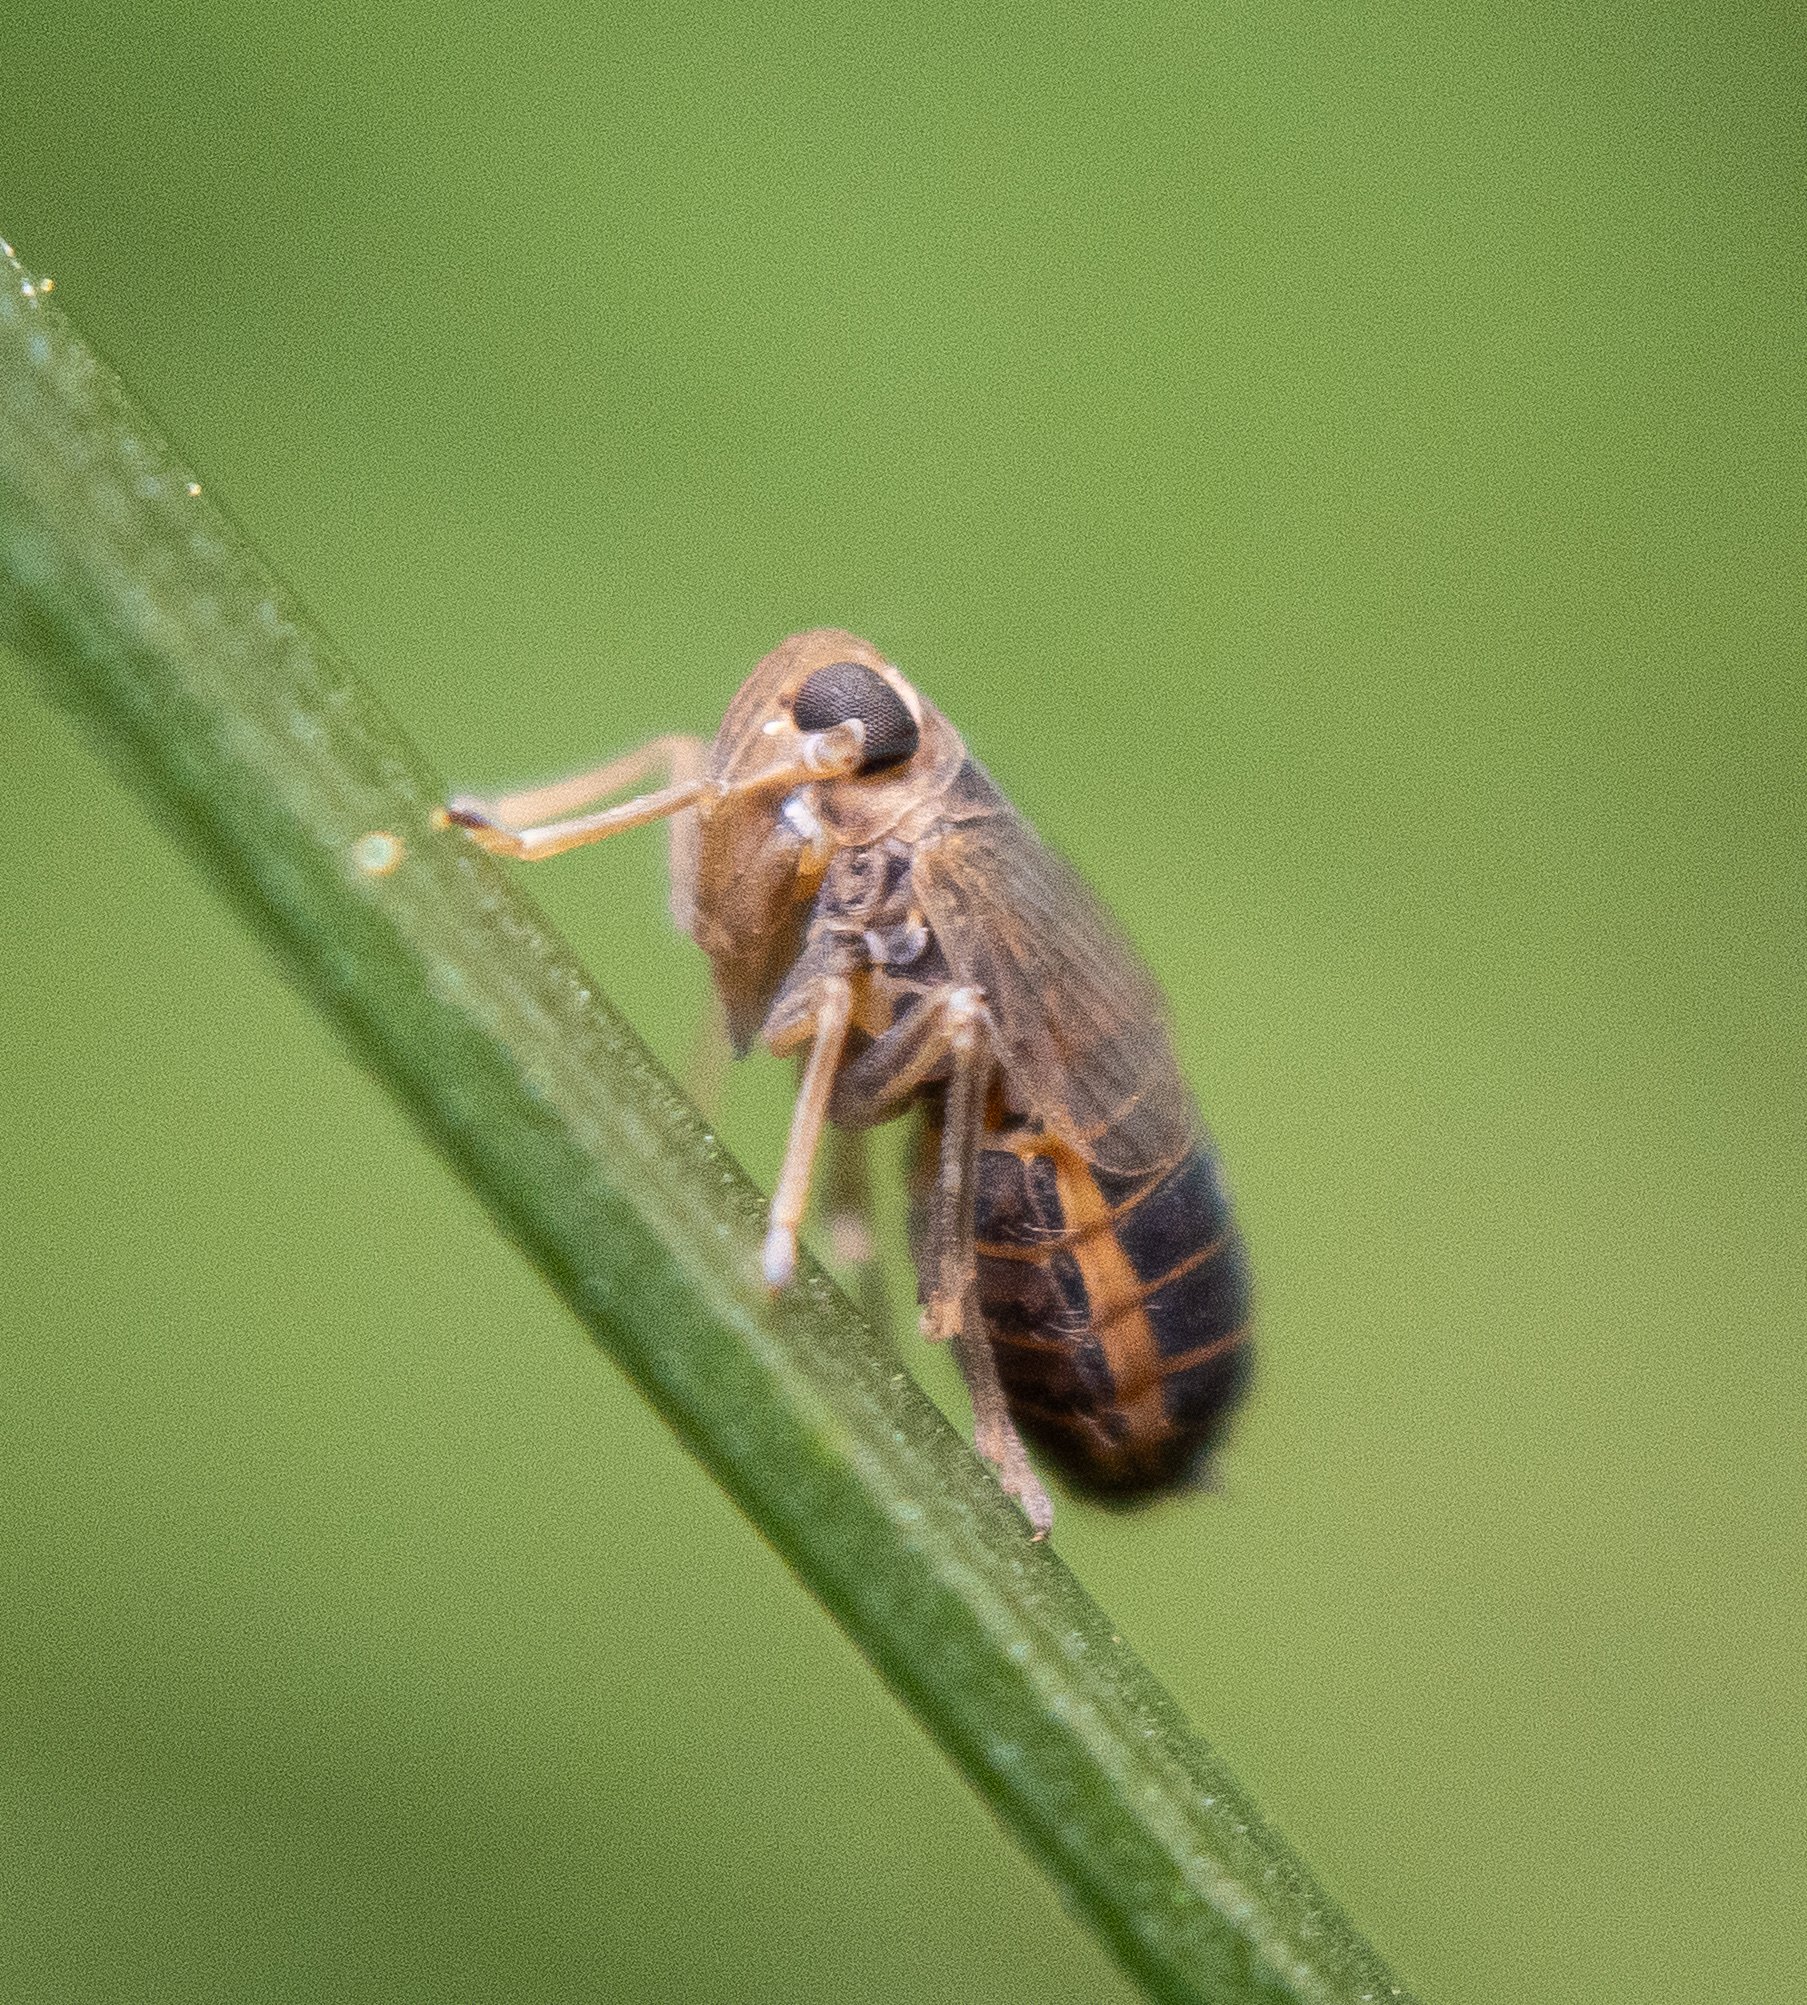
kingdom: Animalia
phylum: Arthropoda
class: Insecta
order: Hemiptera
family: Delphacidae
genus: Kosswigianella
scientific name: Kosswigianella perusta
